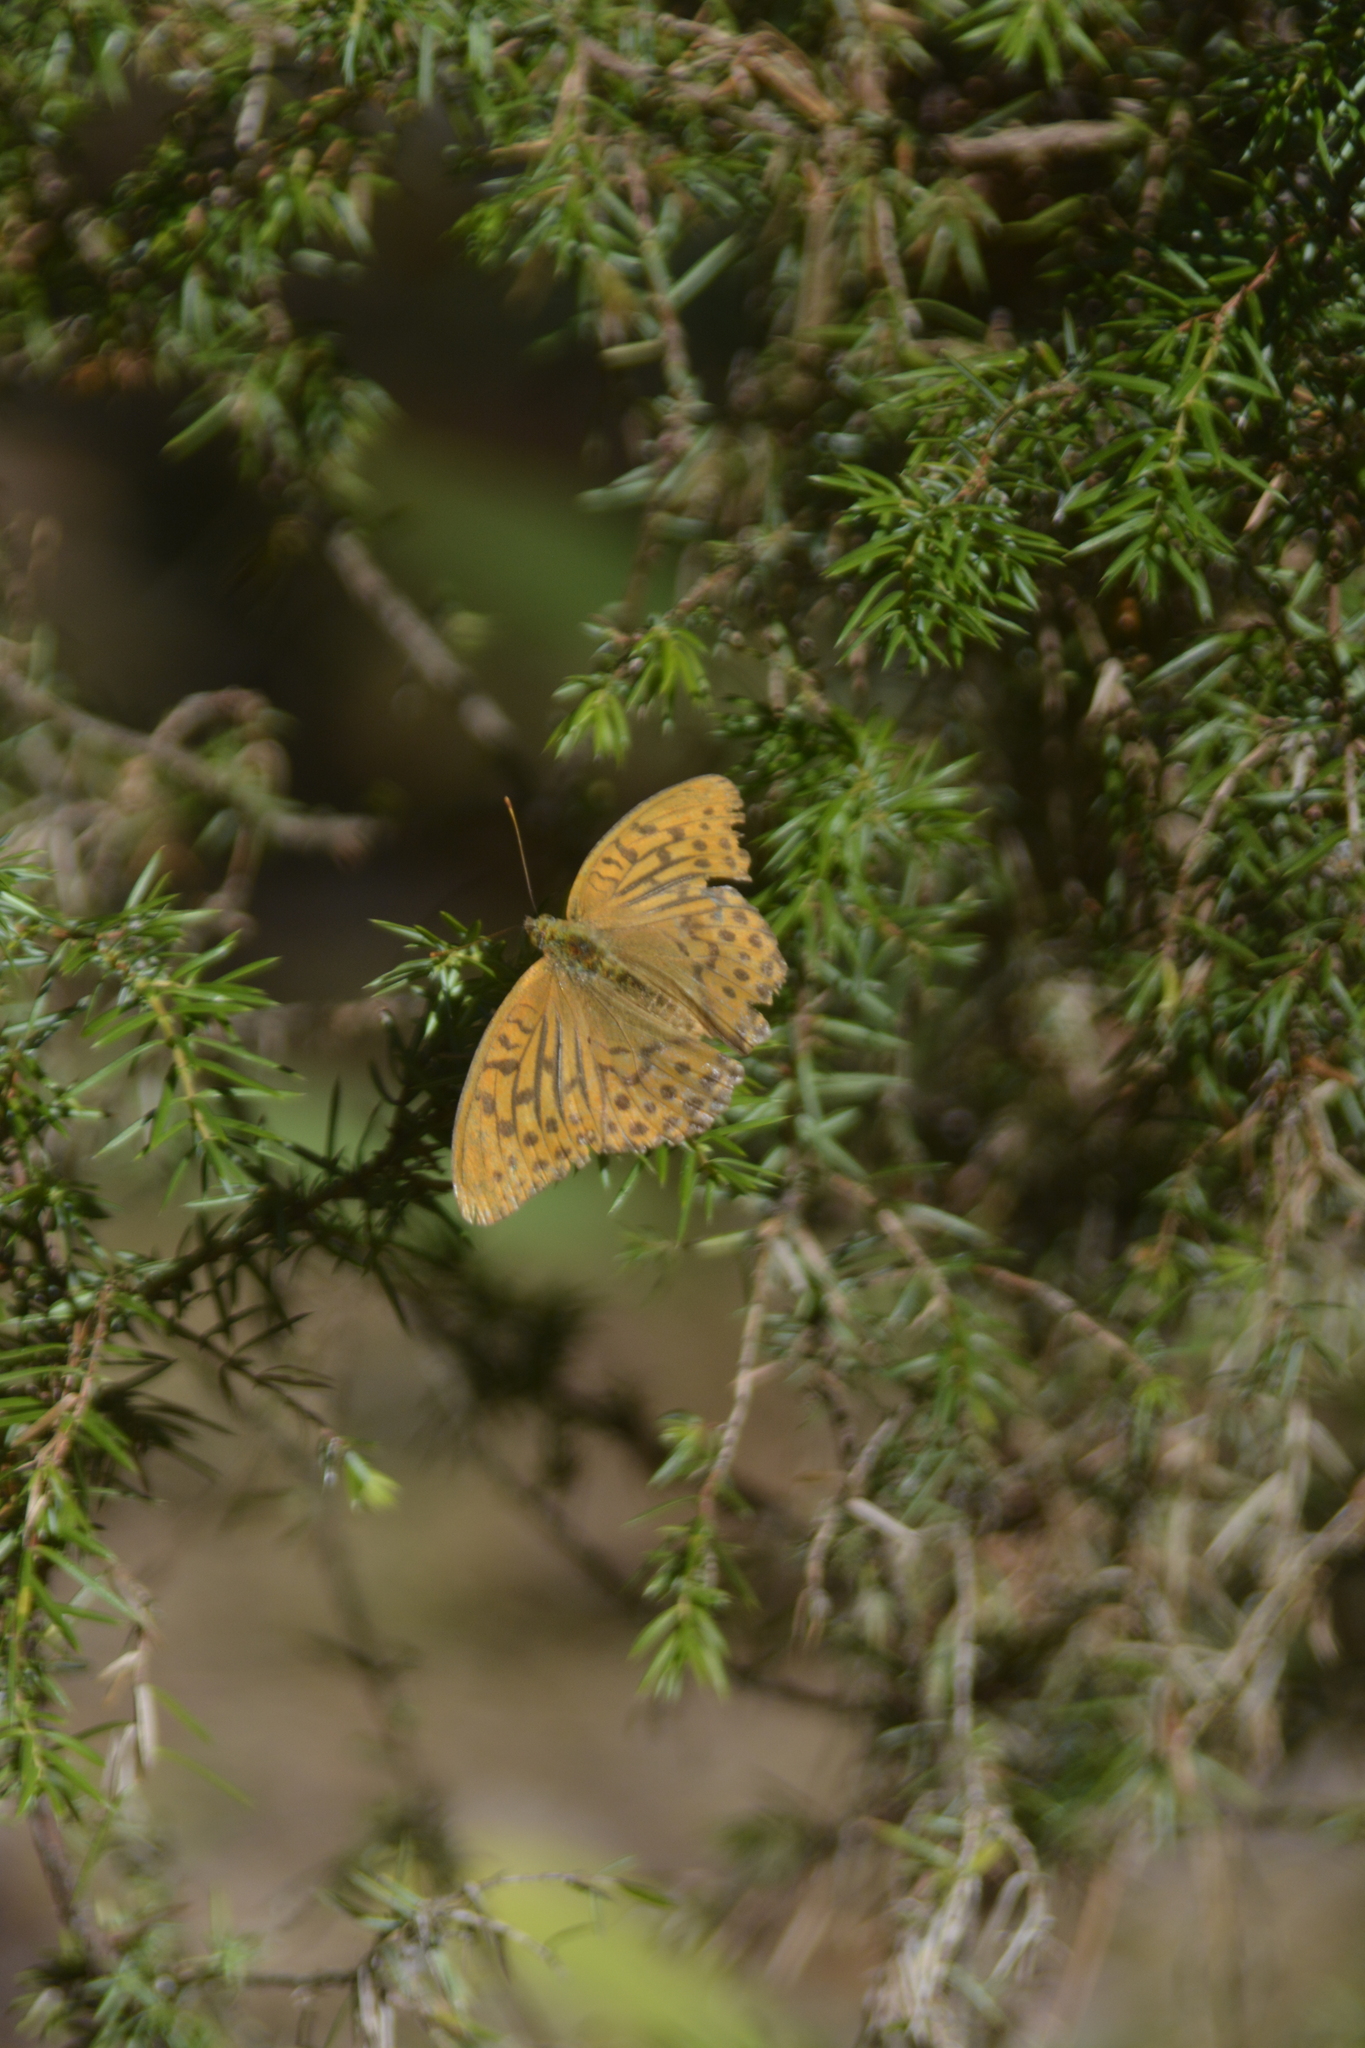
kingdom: Animalia
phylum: Arthropoda
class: Insecta
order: Lepidoptera
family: Nymphalidae
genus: Argynnis
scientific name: Argynnis paphia
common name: Silver-washed fritillary
